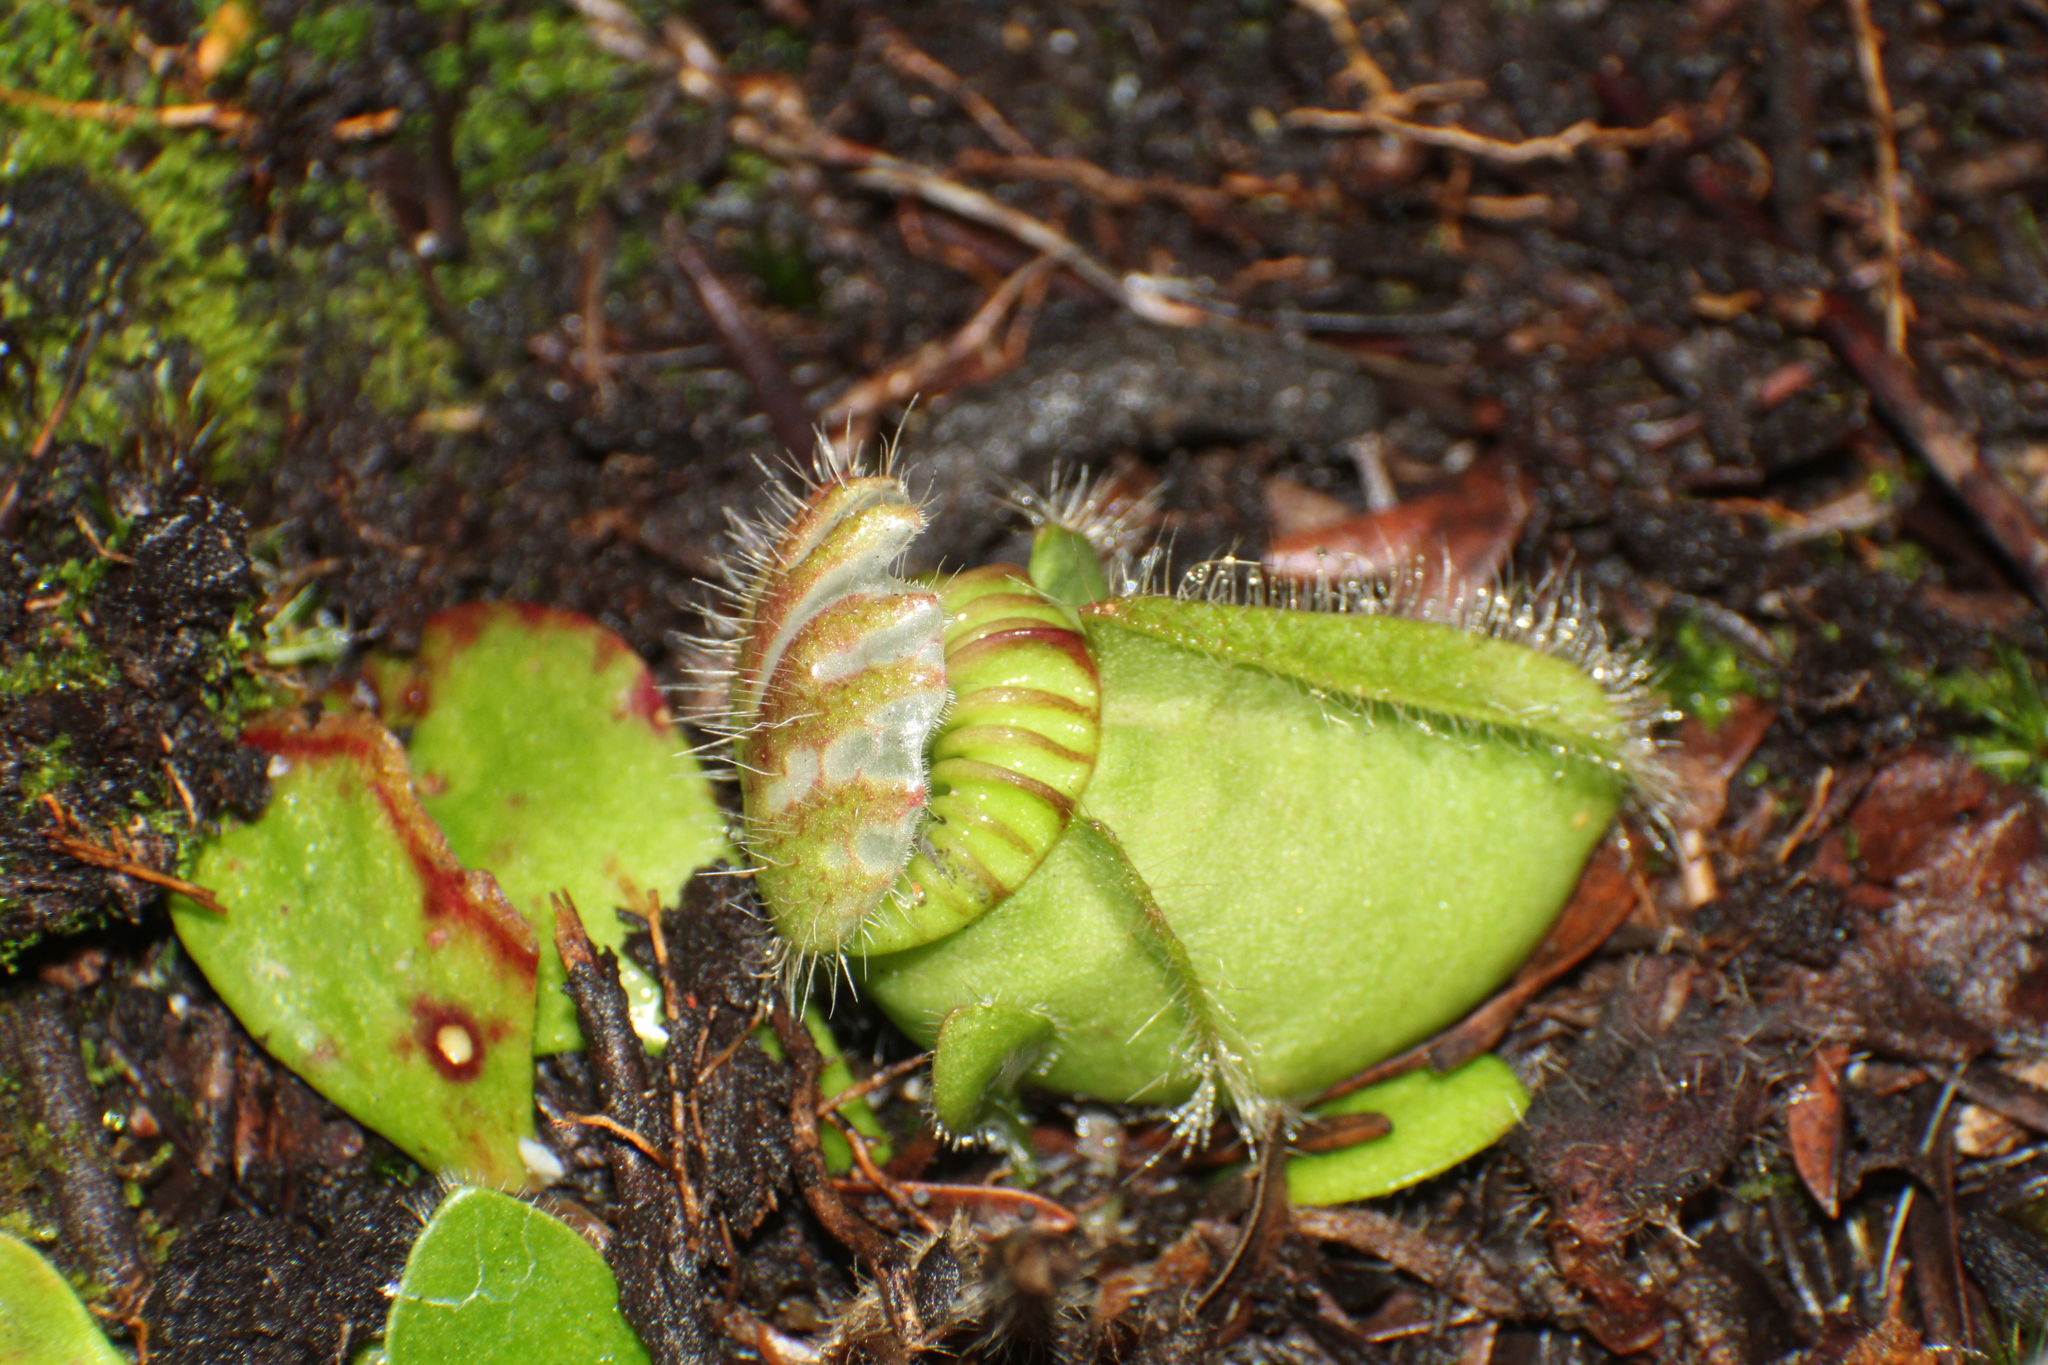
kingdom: Plantae
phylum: Tracheophyta
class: Magnoliopsida
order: Oxalidales
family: Cephalotaceae
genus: Cephalotus
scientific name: Cephalotus follicularis
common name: Australian pitcher plant
